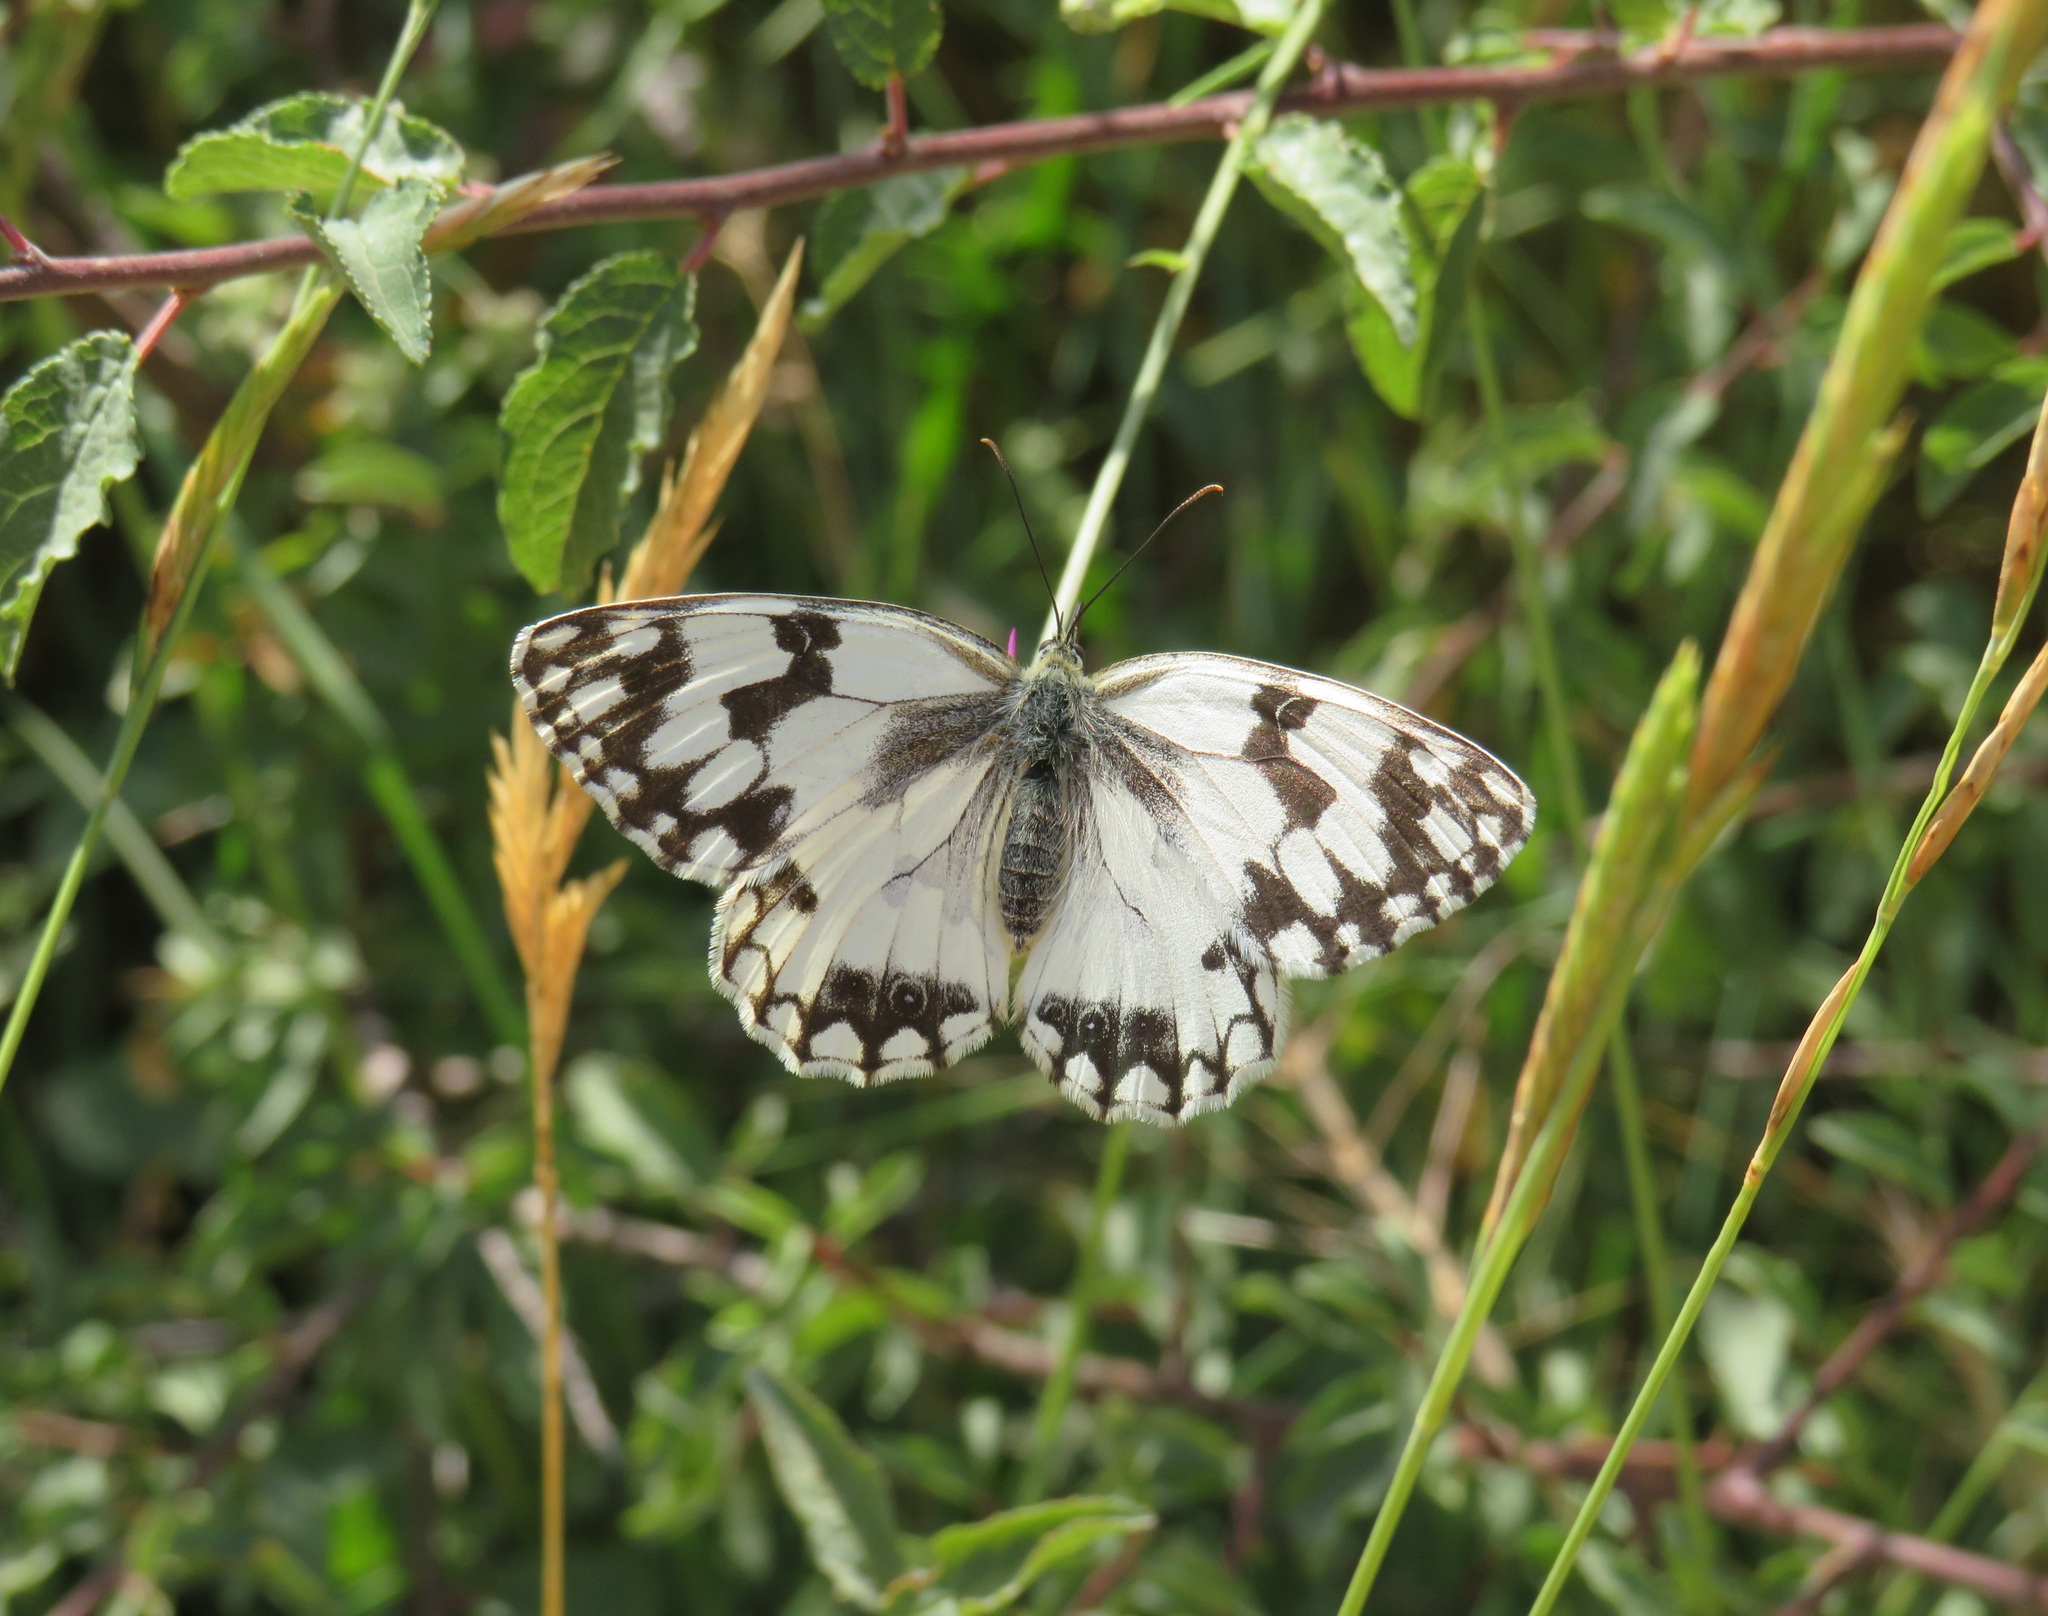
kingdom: Animalia
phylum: Arthropoda
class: Insecta
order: Lepidoptera
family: Nymphalidae
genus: Melanargia
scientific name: Melanargia lachesis
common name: Iberian marbled white
